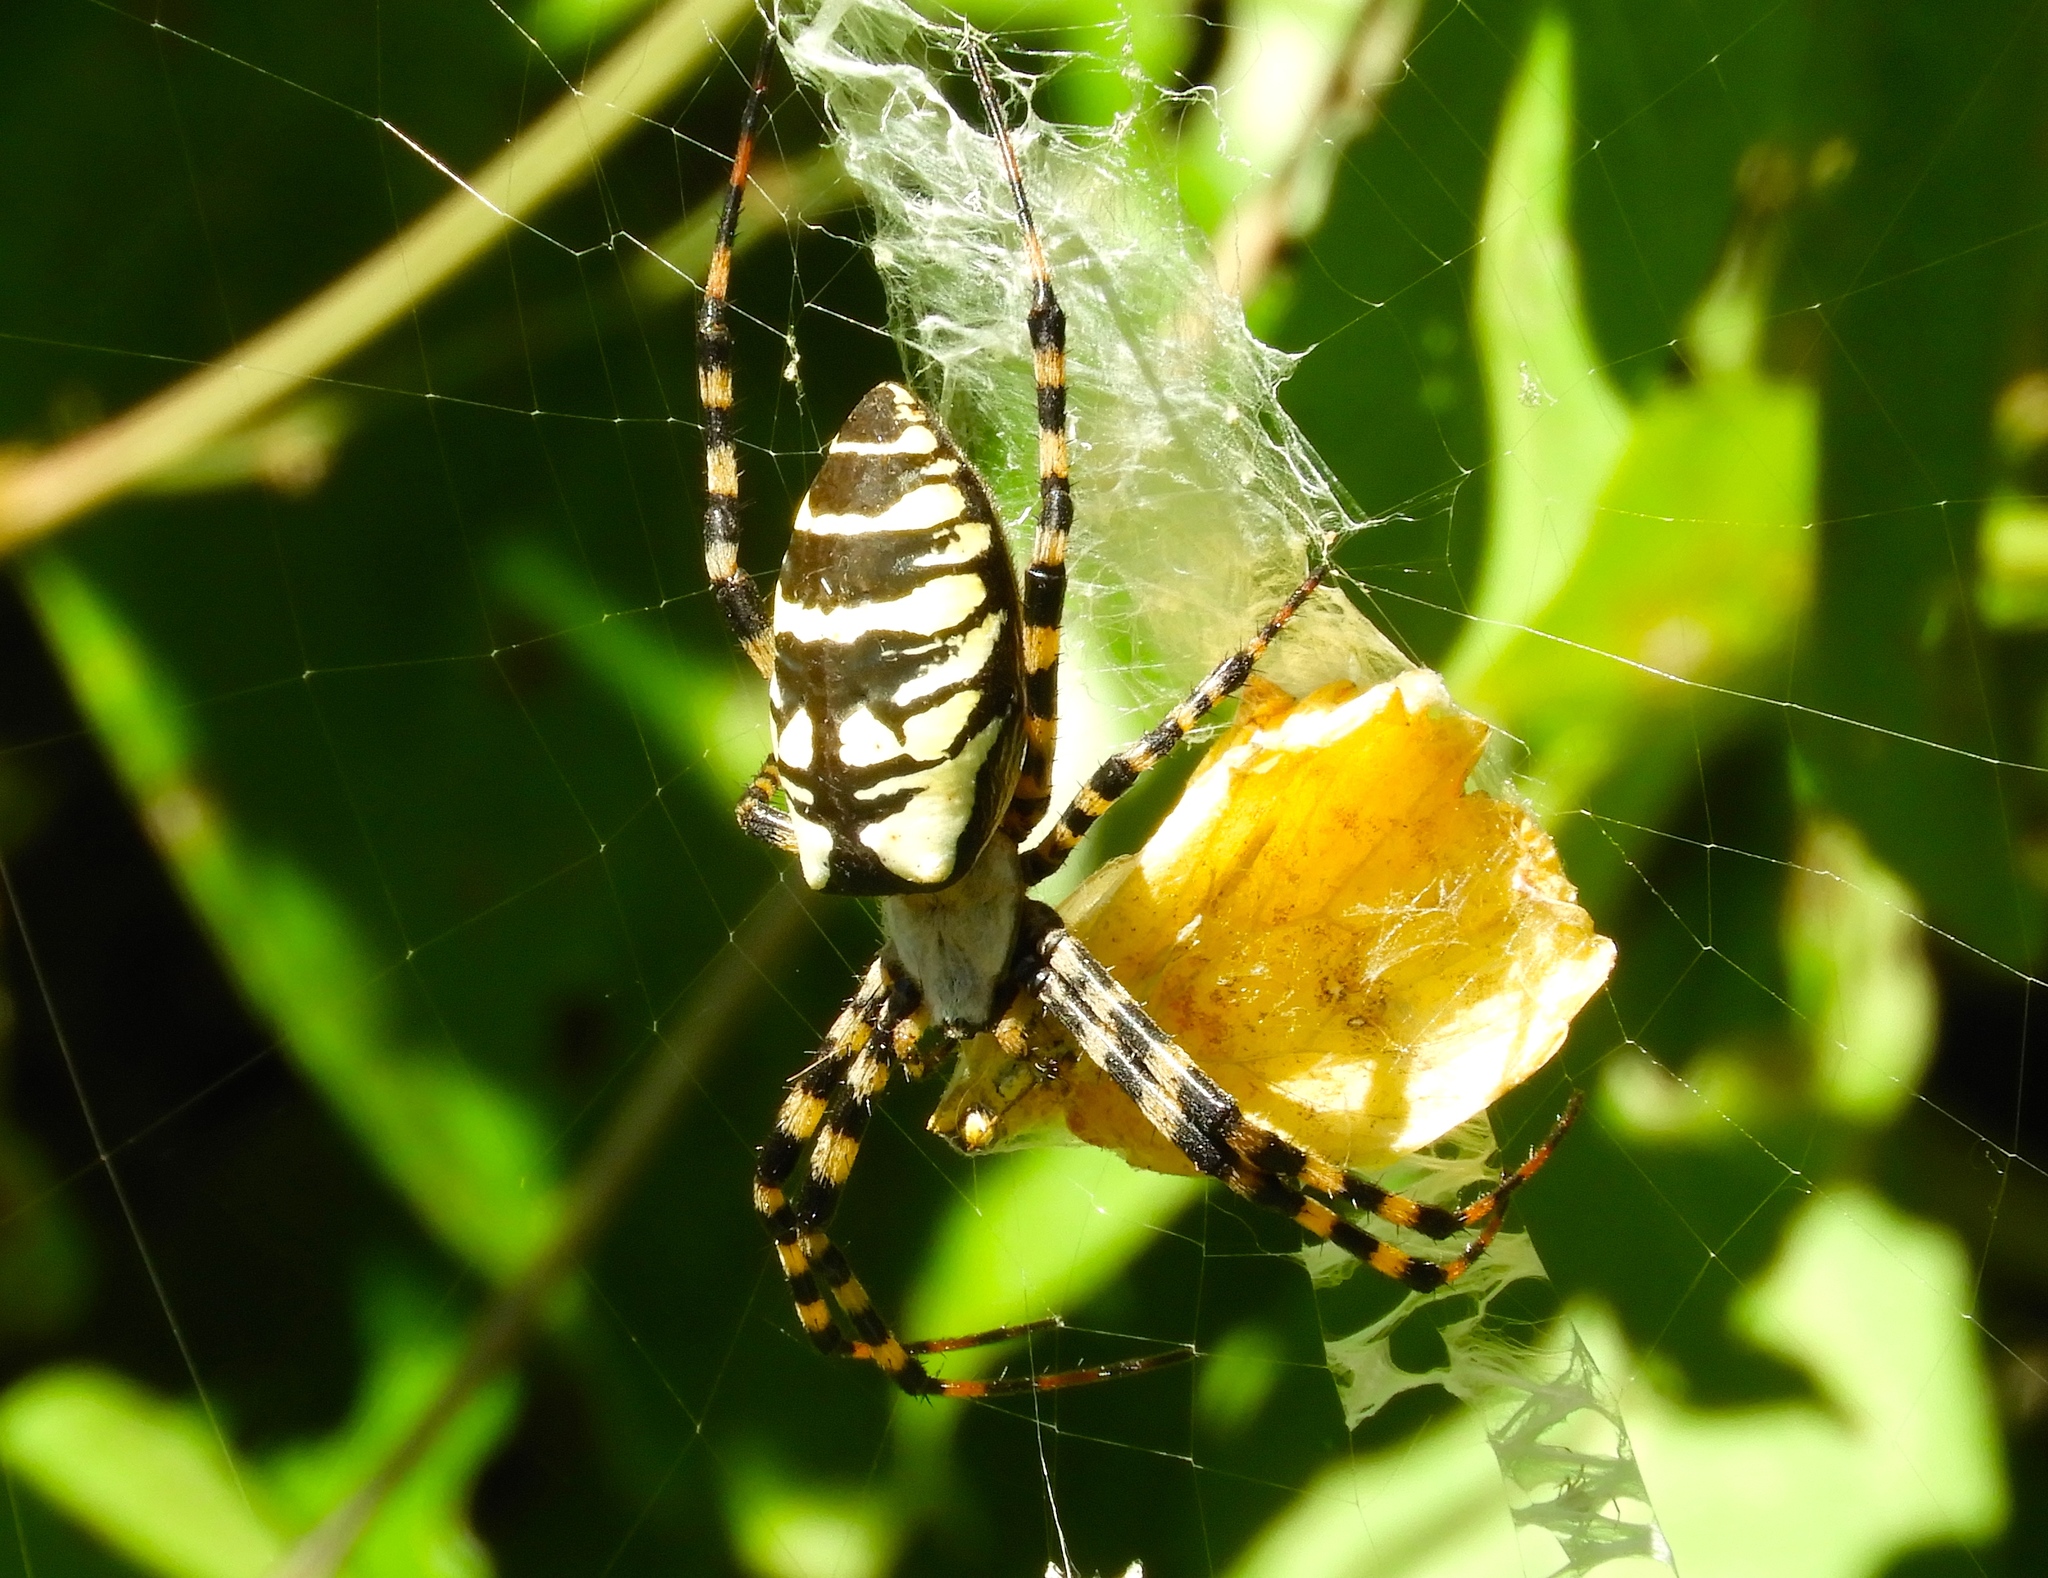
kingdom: Animalia
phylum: Arthropoda
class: Arachnida
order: Araneae
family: Araneidae
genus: Argiope
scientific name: Argiope aurantia
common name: Orb weavers
